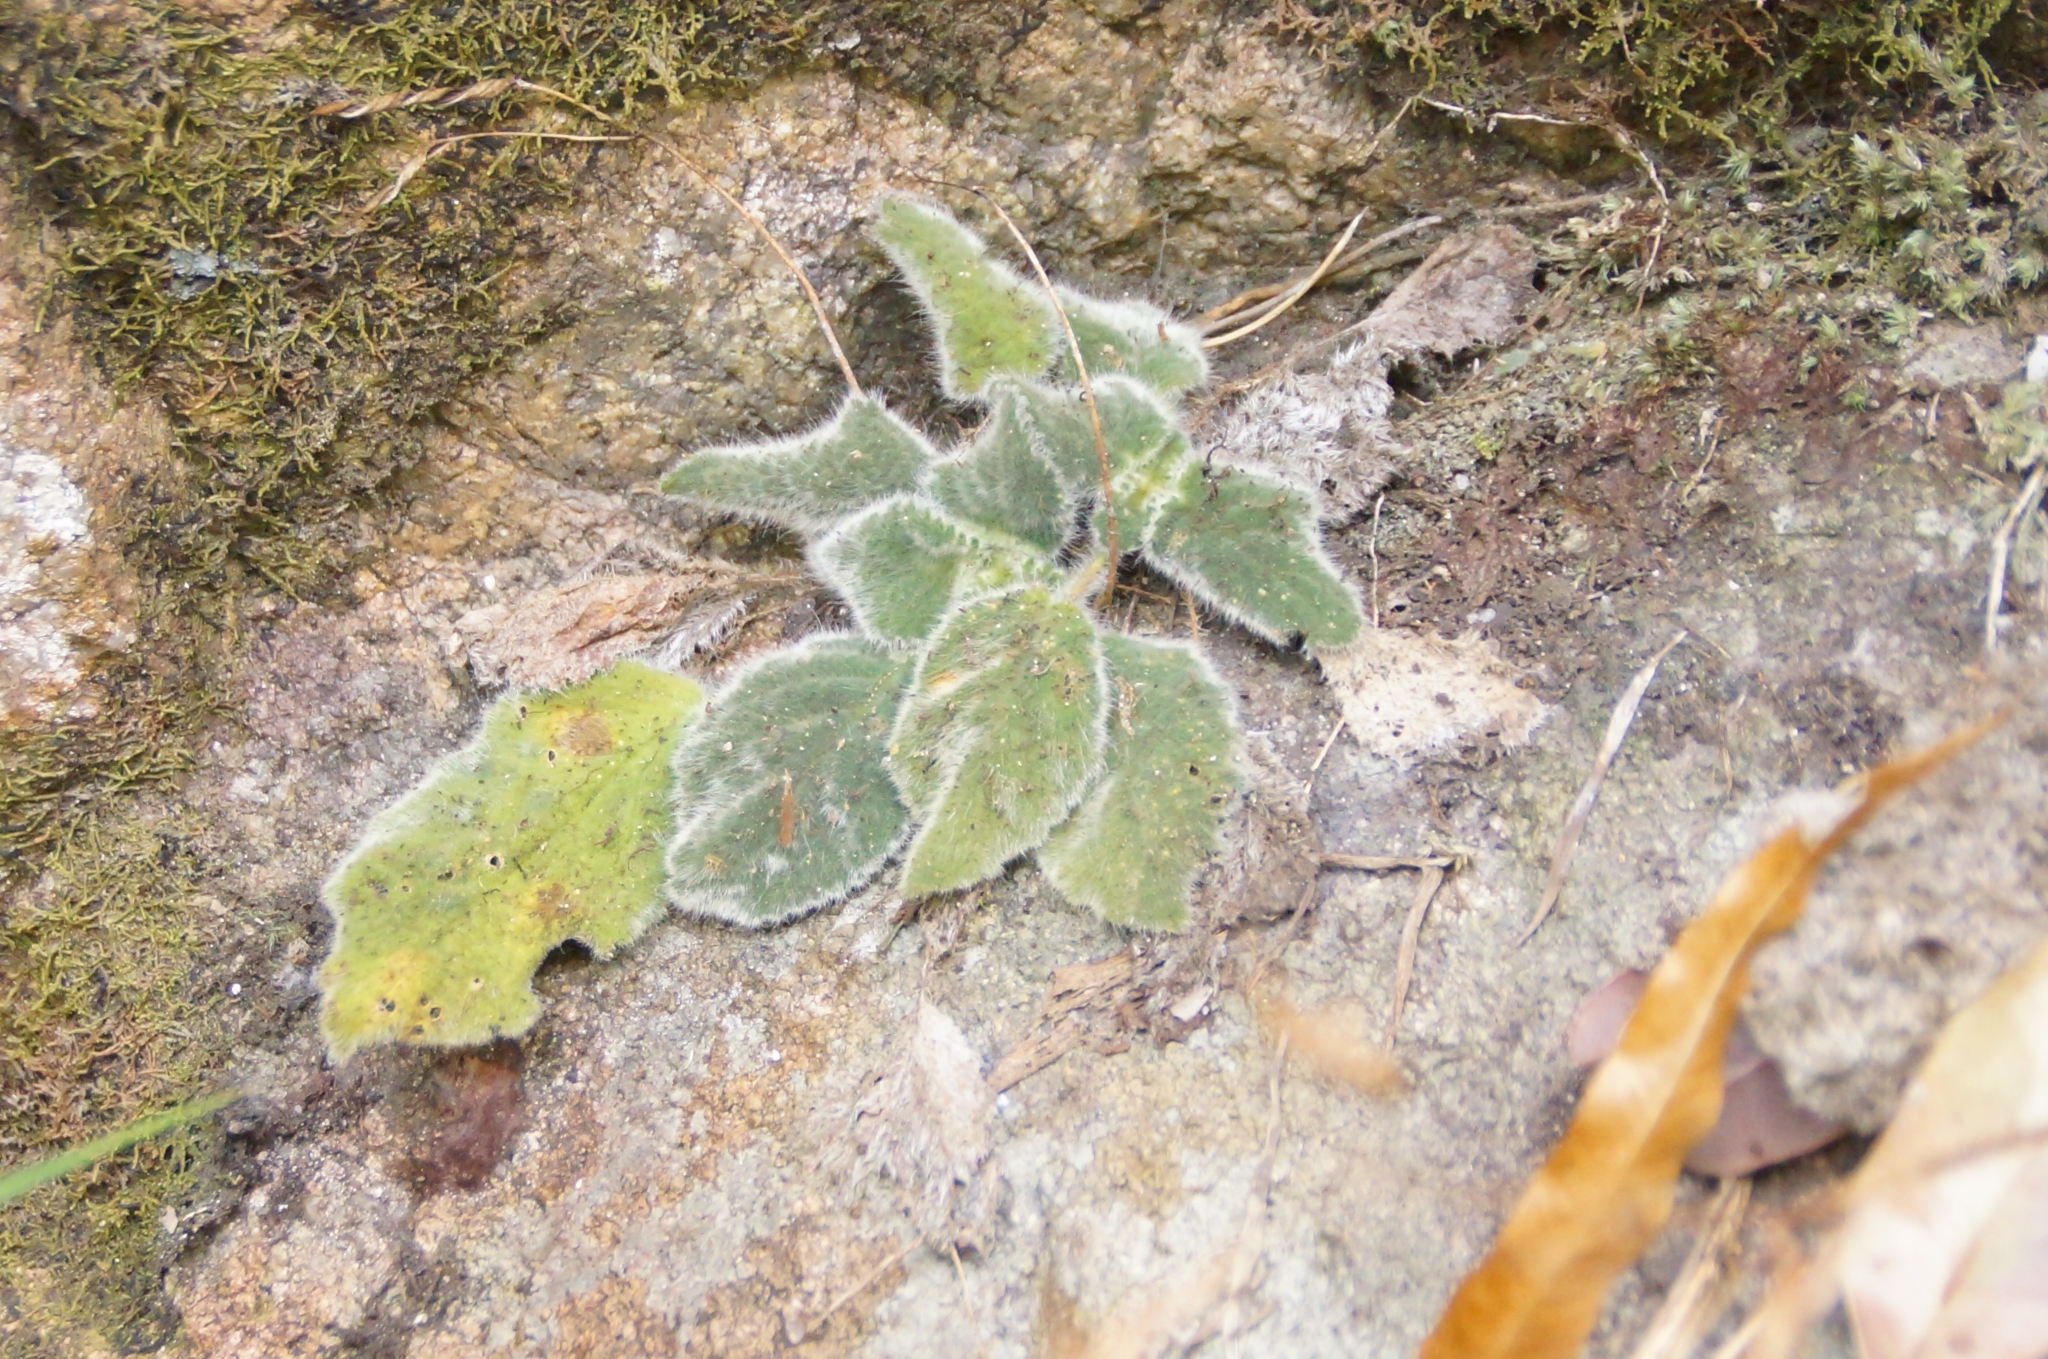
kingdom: Plantae
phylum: Tracheophyta
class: Magnoliopsida
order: Lamiales
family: Gesneriaceae
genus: Boea
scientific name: Boea hygroscopica
